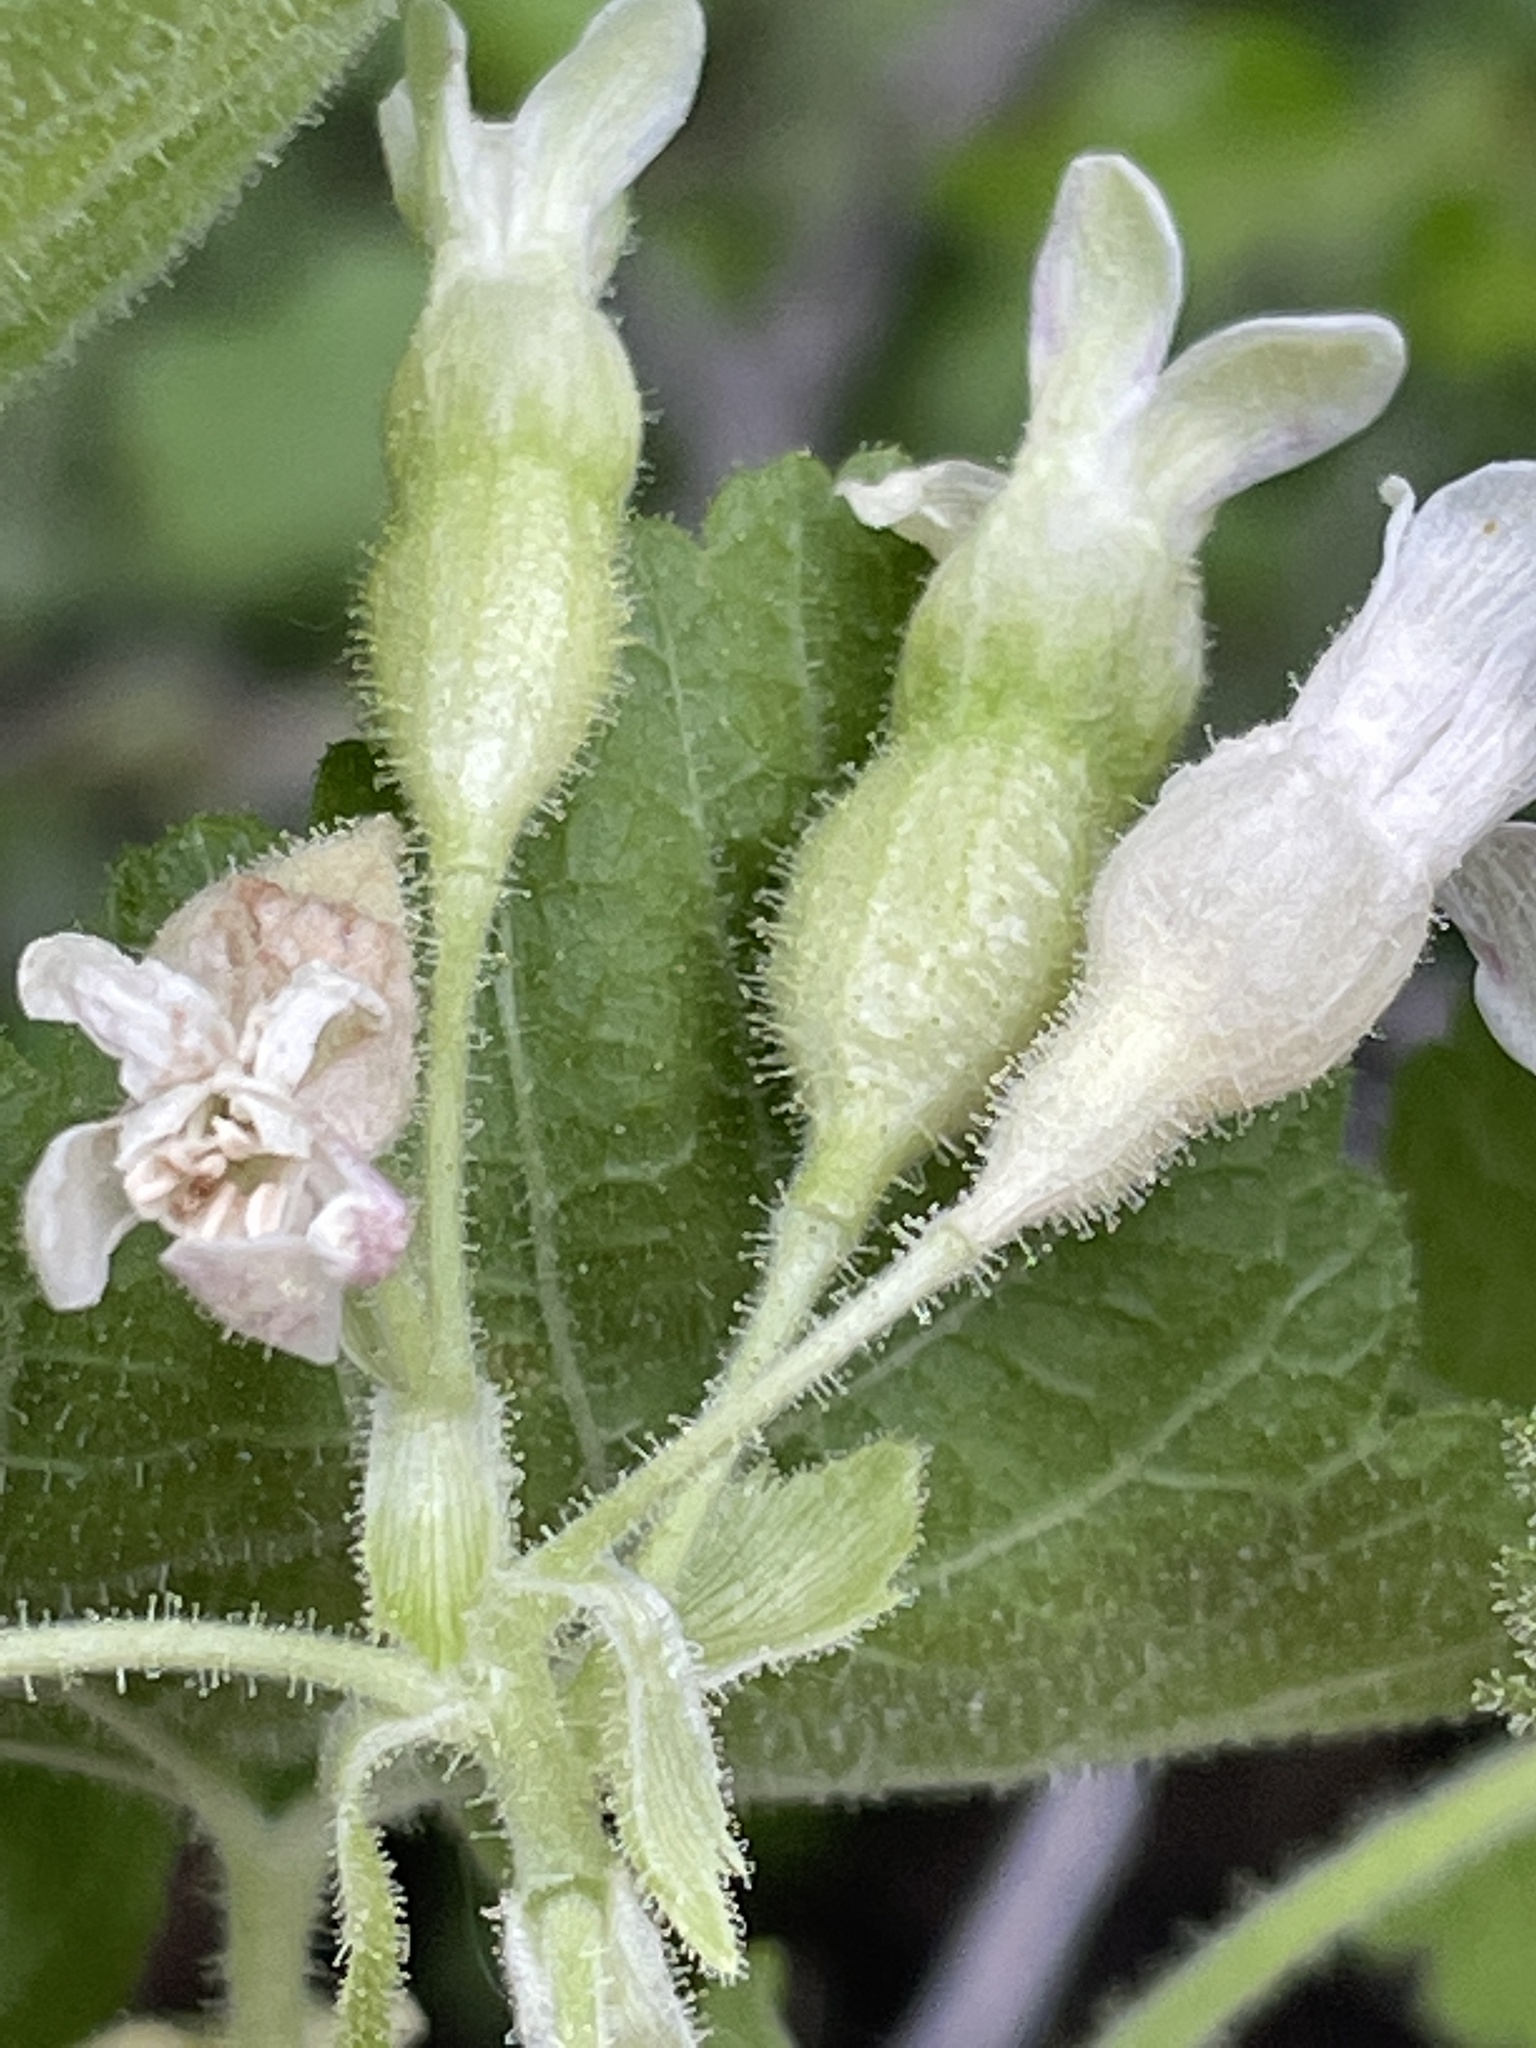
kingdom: Plantae
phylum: Tracheophyta
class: Magnoliopsida
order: Saxifragales
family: Grossulariaceae
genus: Ribes
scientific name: Ribes viscosissimum
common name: Sticky currant
